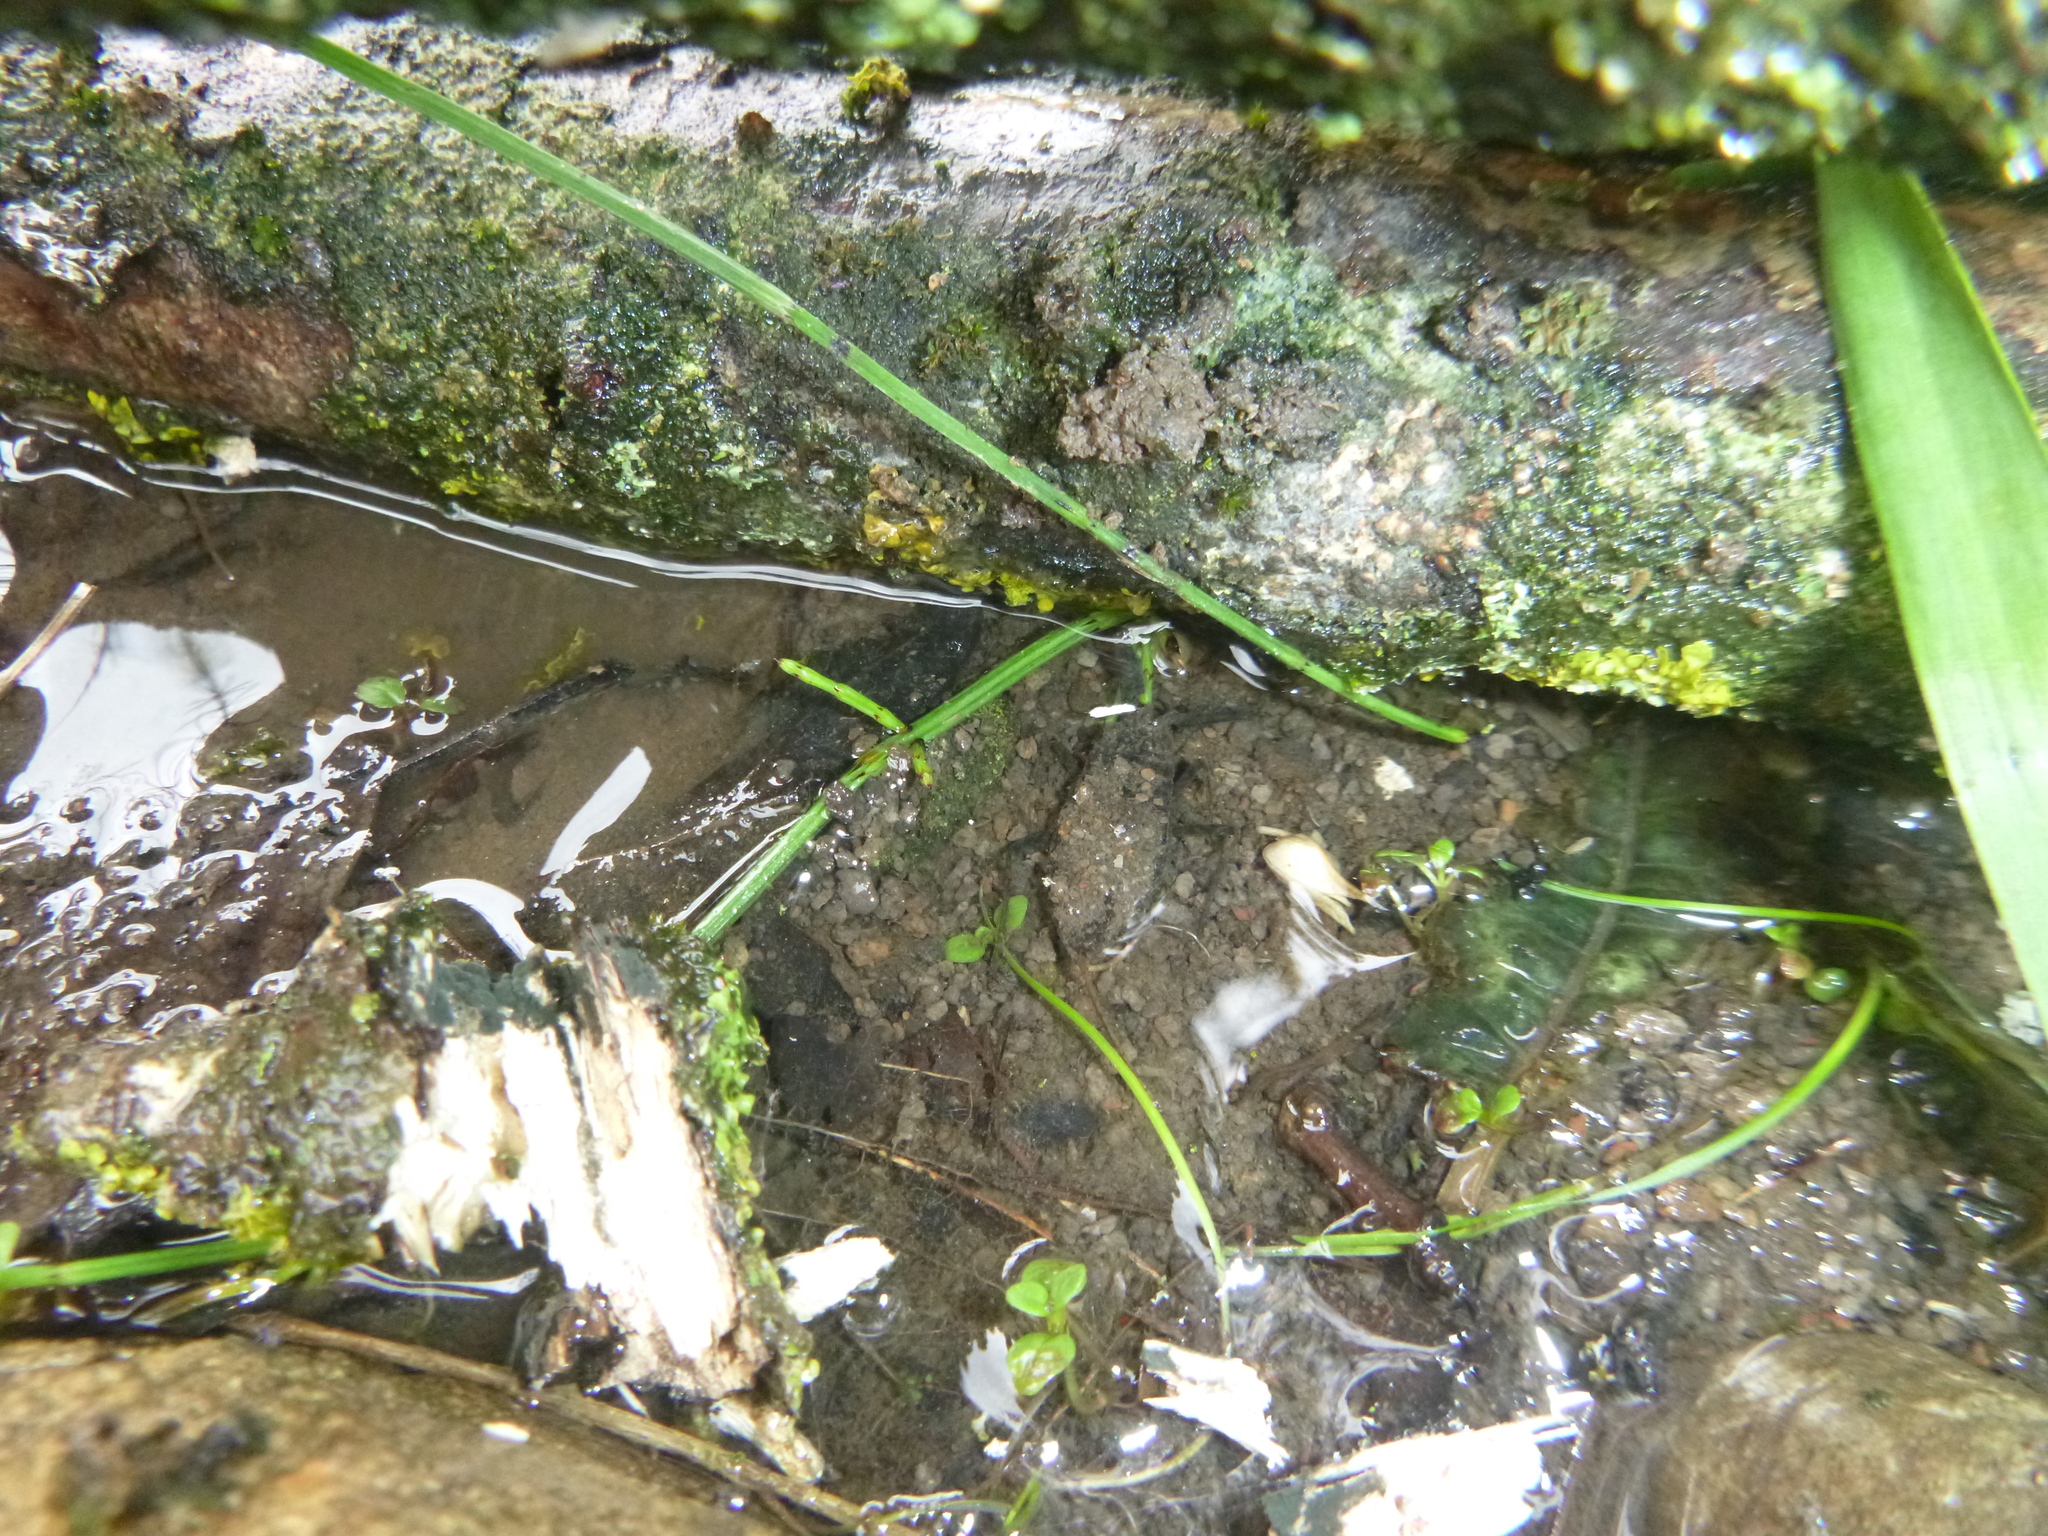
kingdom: Animalia
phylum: Arthropoda
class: Insecta
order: Hemiptera
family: Nepidae
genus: Nepa
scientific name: Nepa cinerea
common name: Water scorpion
